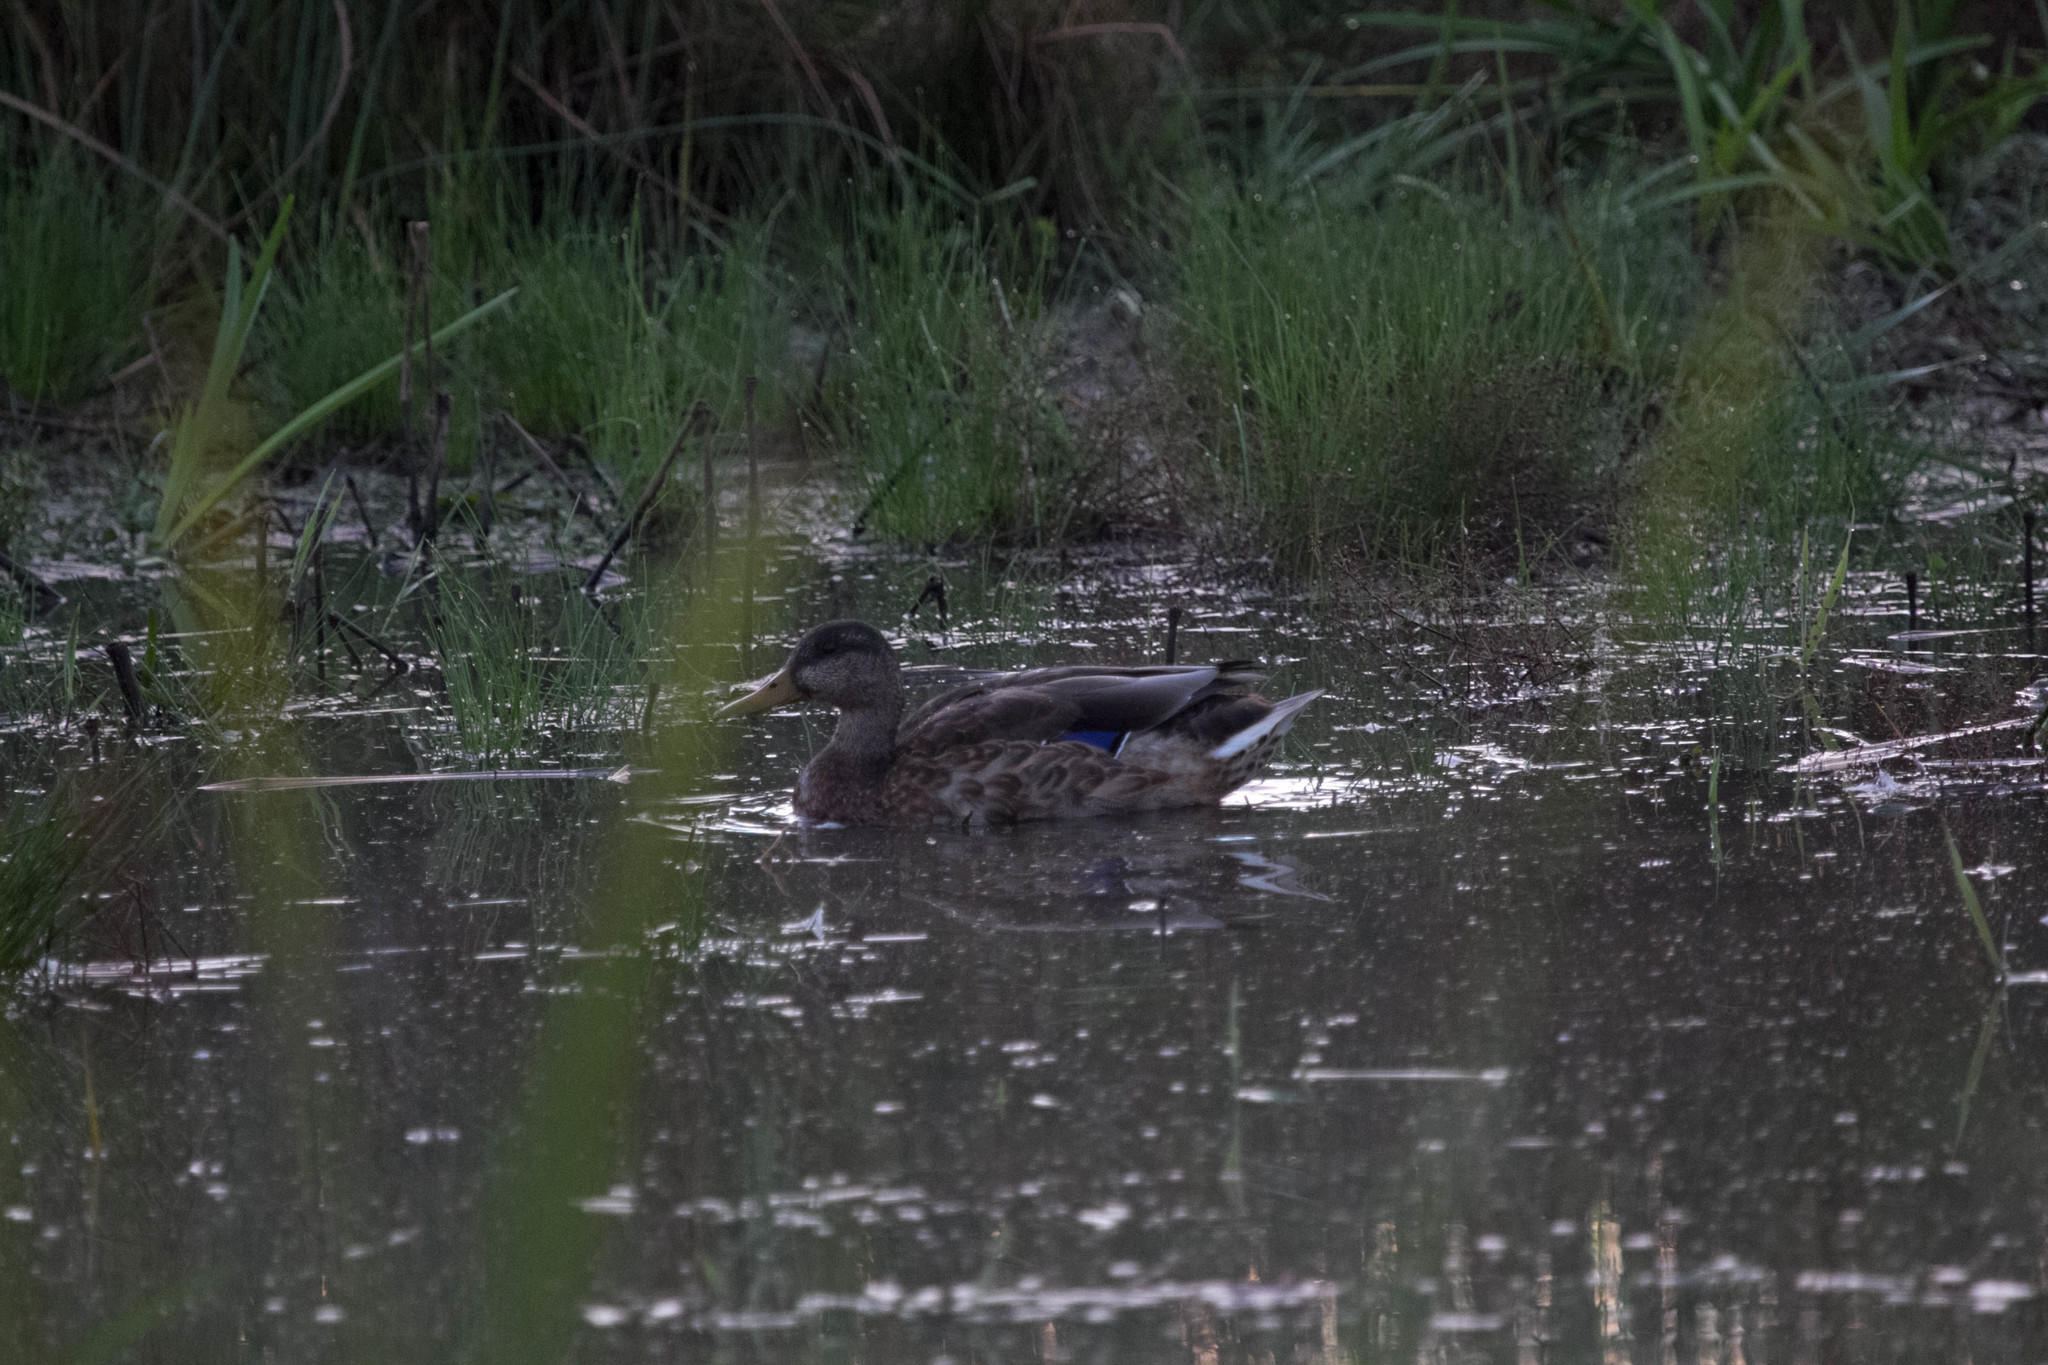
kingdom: Animalia
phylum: Chordata
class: Aves
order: Anseriformes
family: Anatidae
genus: Anas
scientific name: Anas platyrhynchos
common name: Mallard
